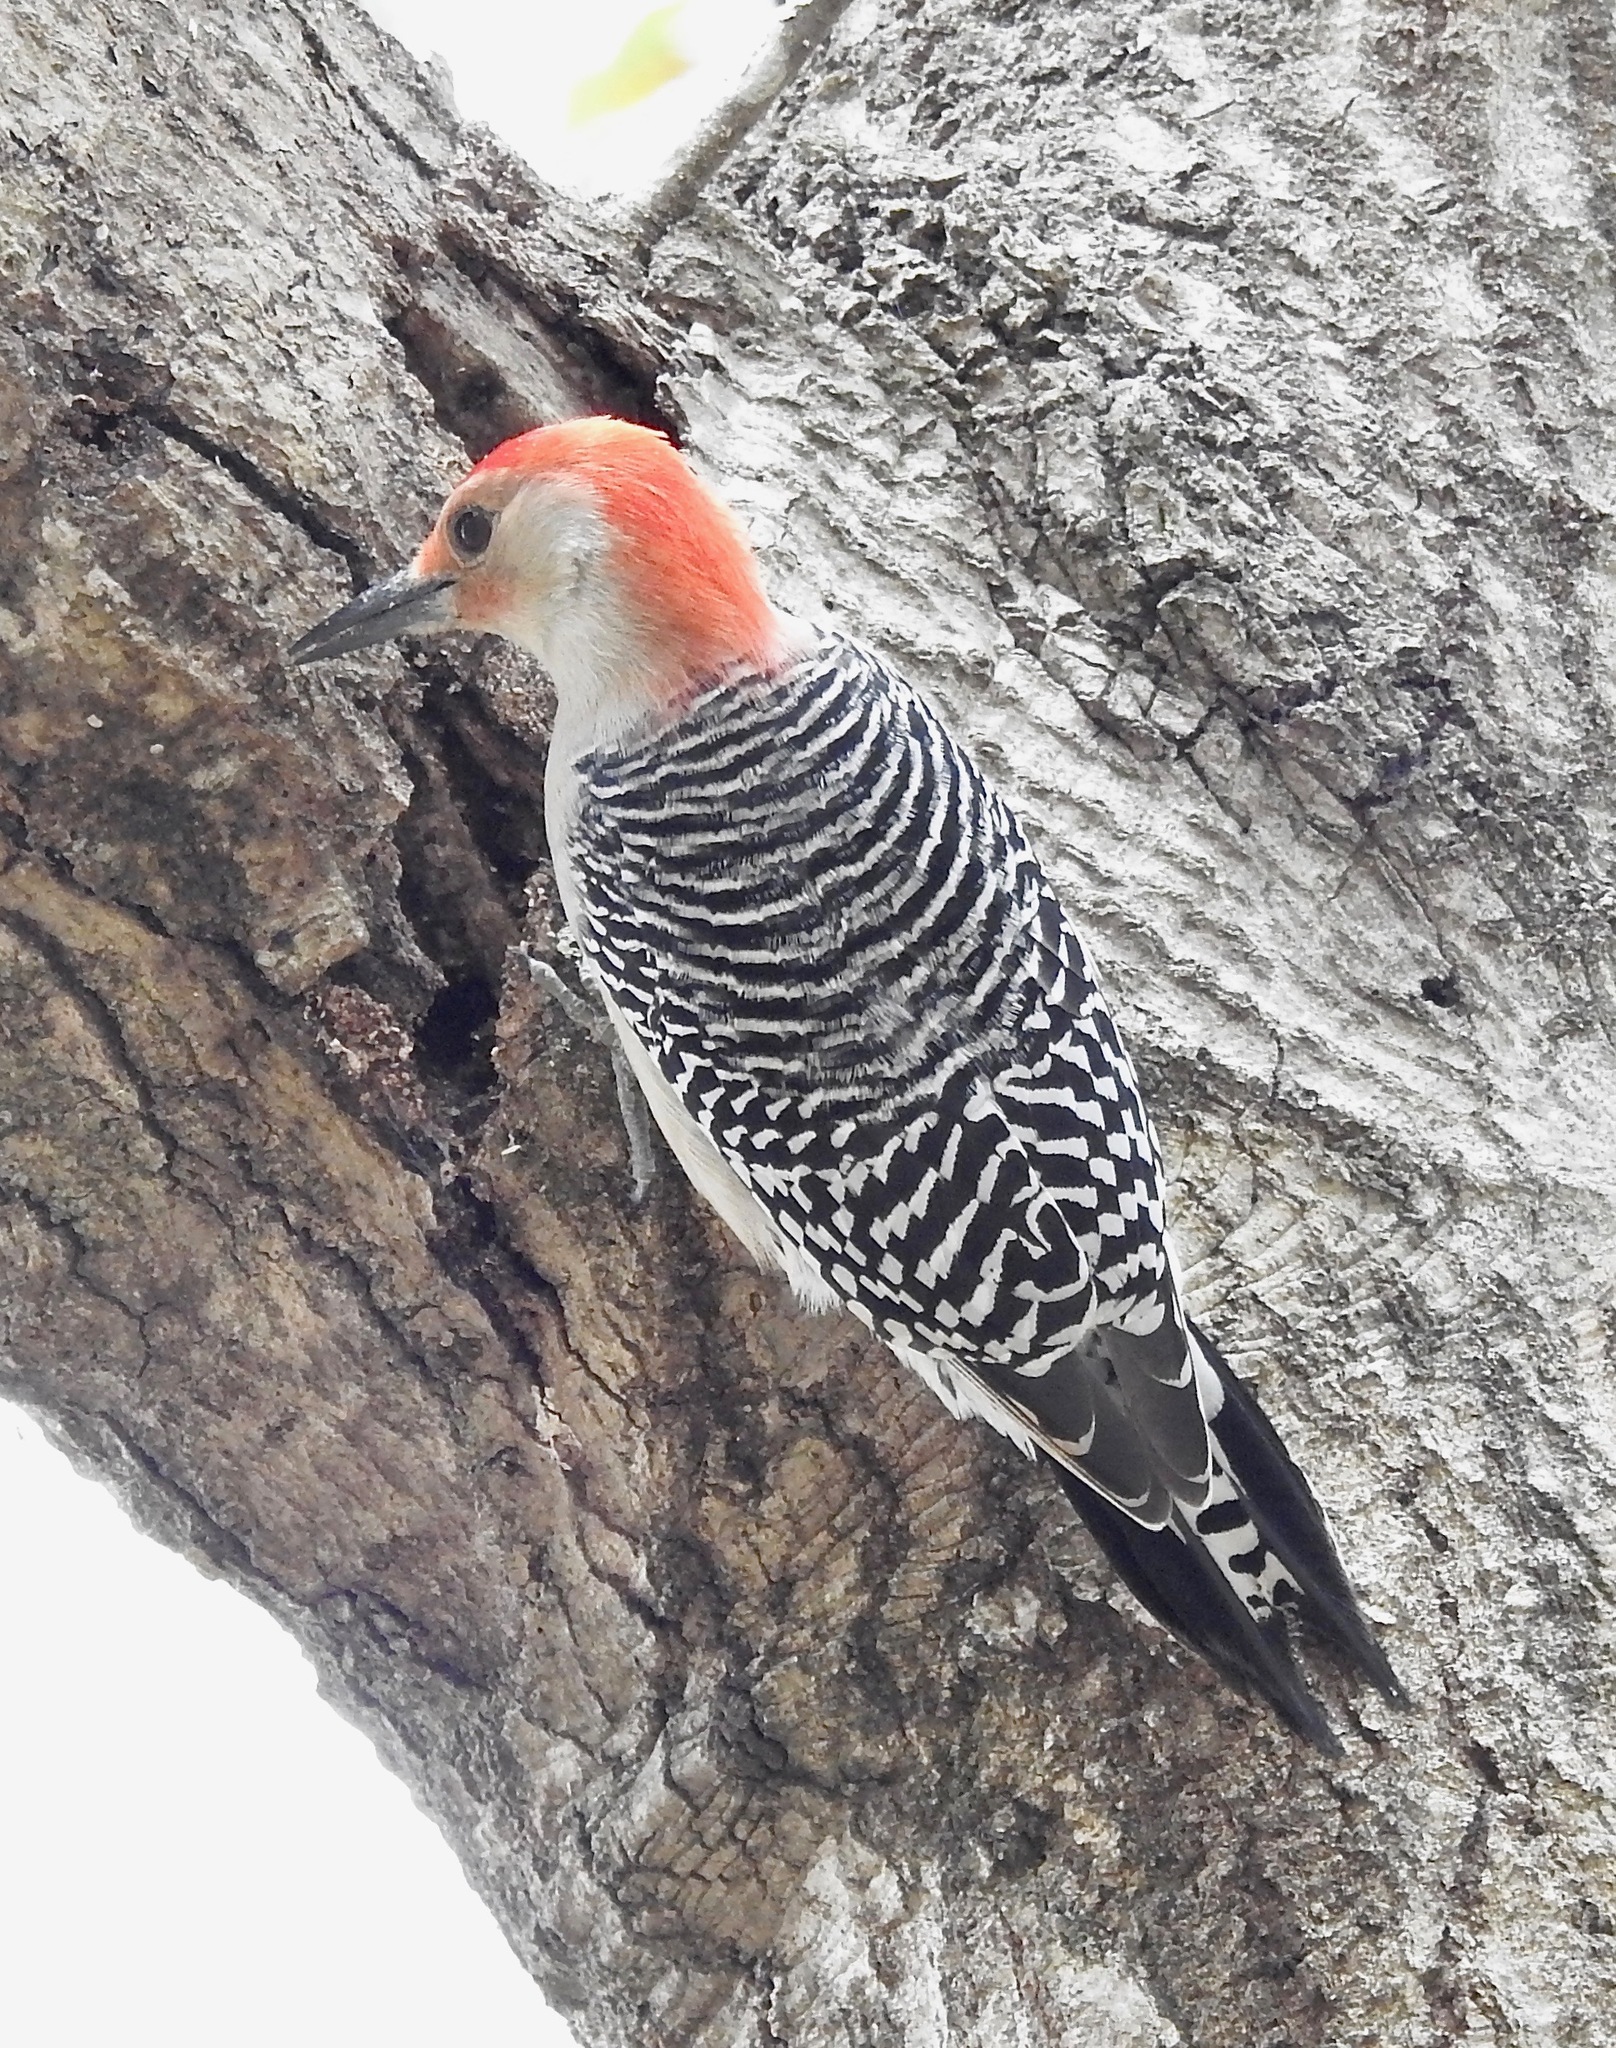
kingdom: Animalia
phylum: Chordata
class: Aves
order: Piciformes
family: Picidae
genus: Melanerpes
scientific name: Melanerpes carolinus
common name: Red-bellied woodpecker
